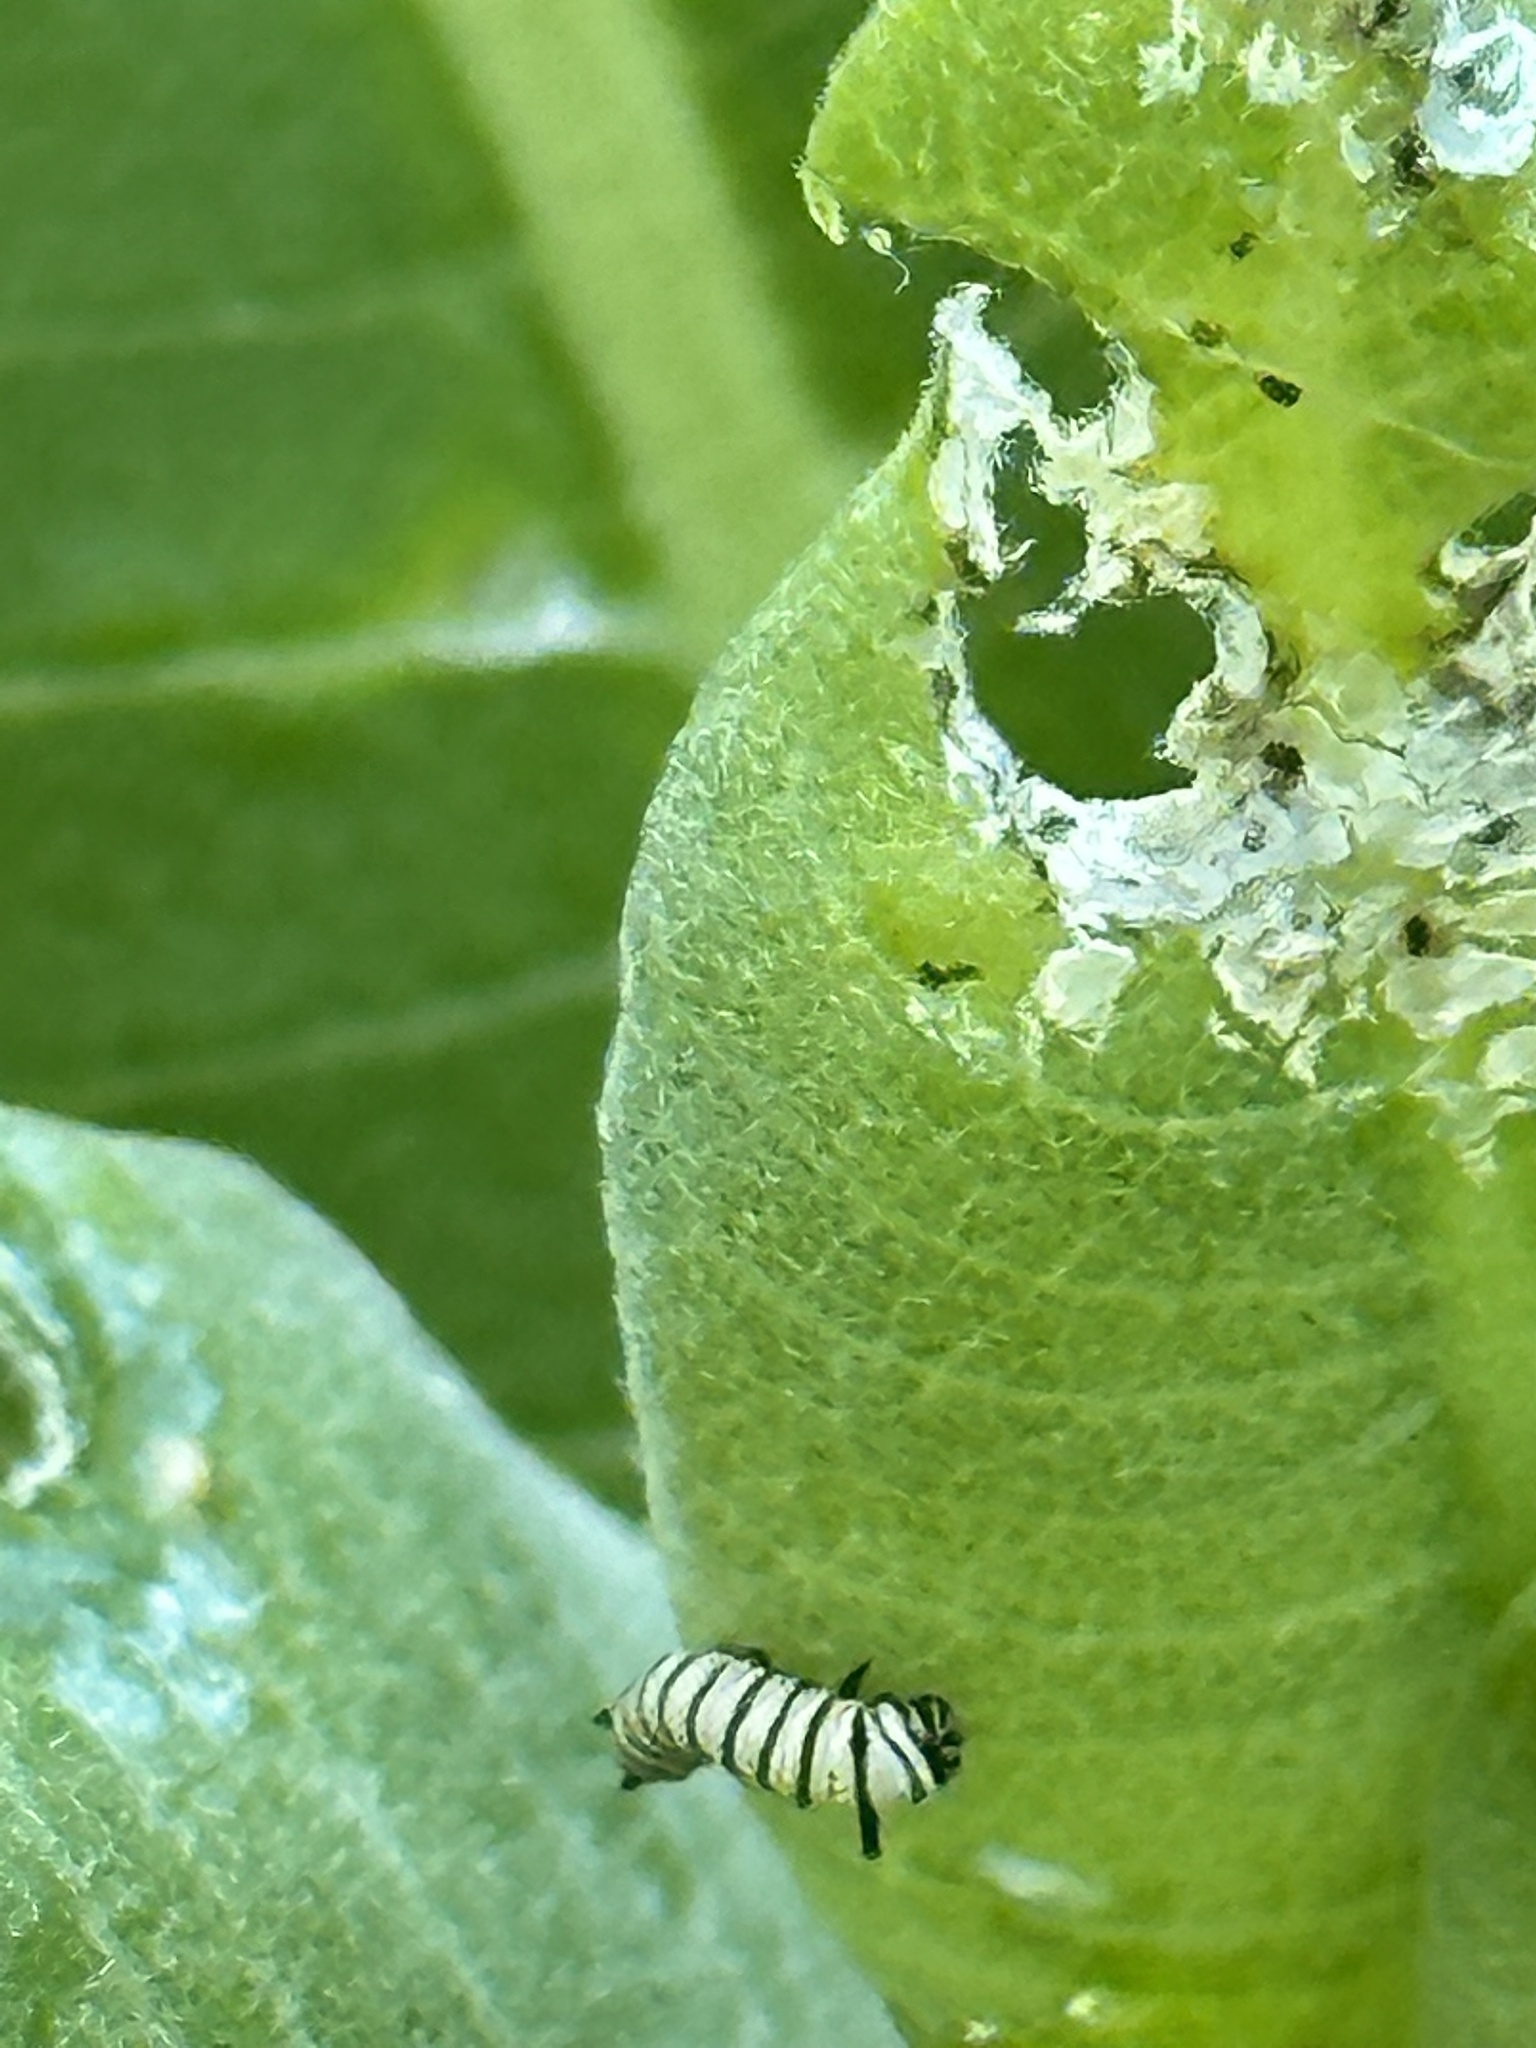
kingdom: Animalia
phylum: Arthropoda
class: Insecta
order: Lepidoptera
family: Nymphalidae
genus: Danaus
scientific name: Danaus plexippus
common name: Monarch
